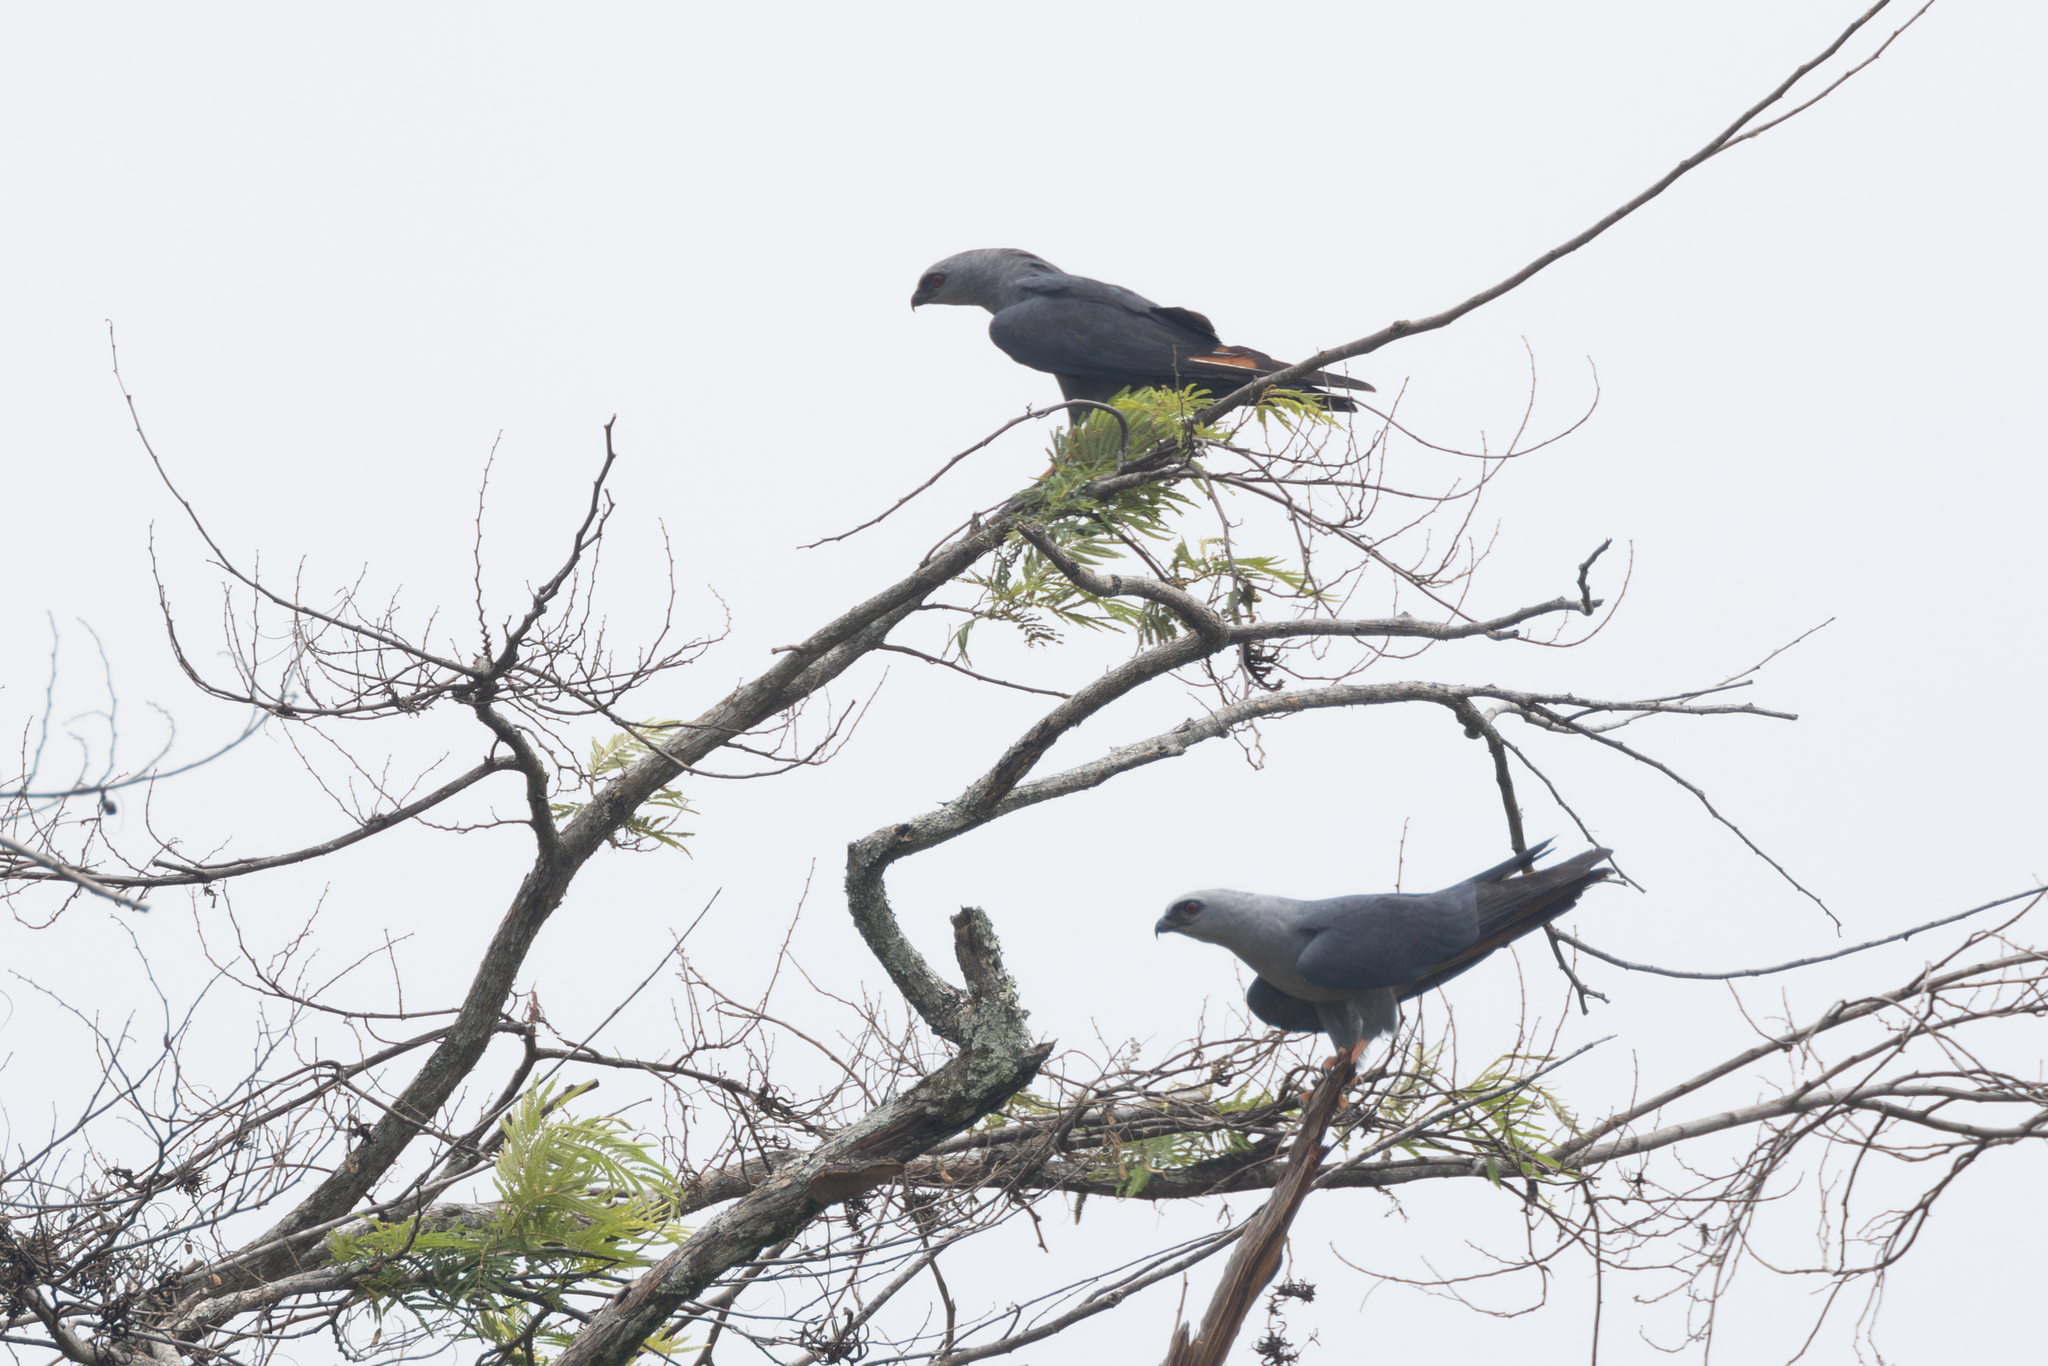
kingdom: Animalia
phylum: Chordata
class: Aves
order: Accipitriformes
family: Accipitridae
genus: Ictinia
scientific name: Ictinia plumbea
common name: Plumbeous kite
